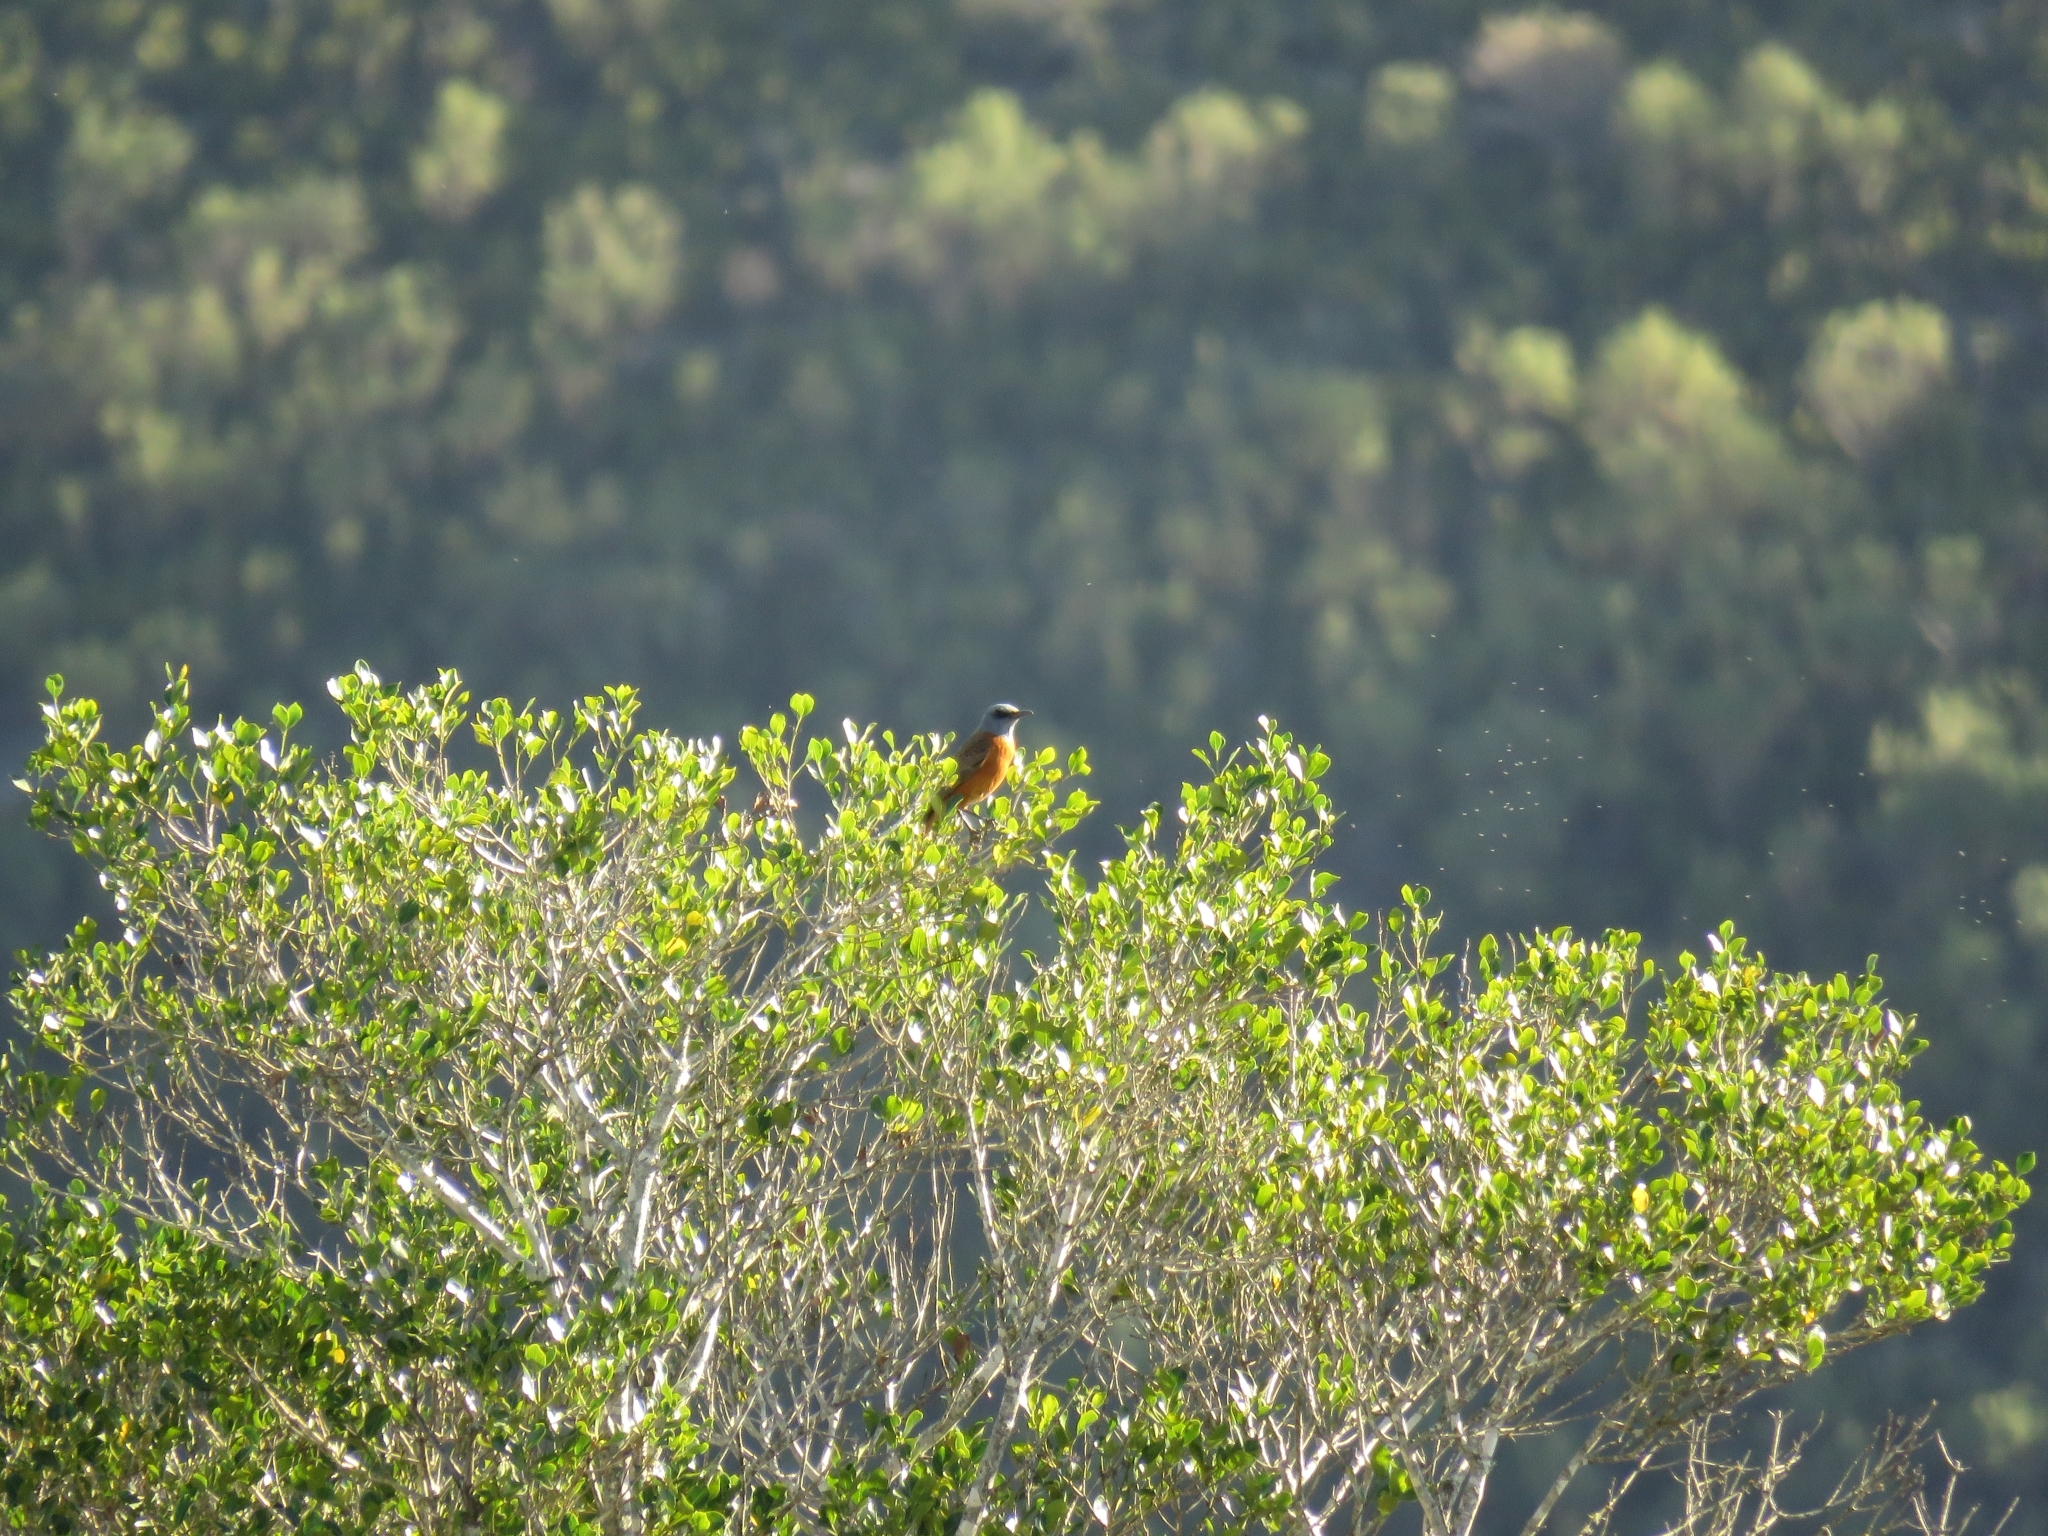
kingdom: Animalia
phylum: Chordata
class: Aves
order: Passeriformes
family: Muscicapidae
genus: Monticola
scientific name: Monticola rupestris
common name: Cape rock thrush
